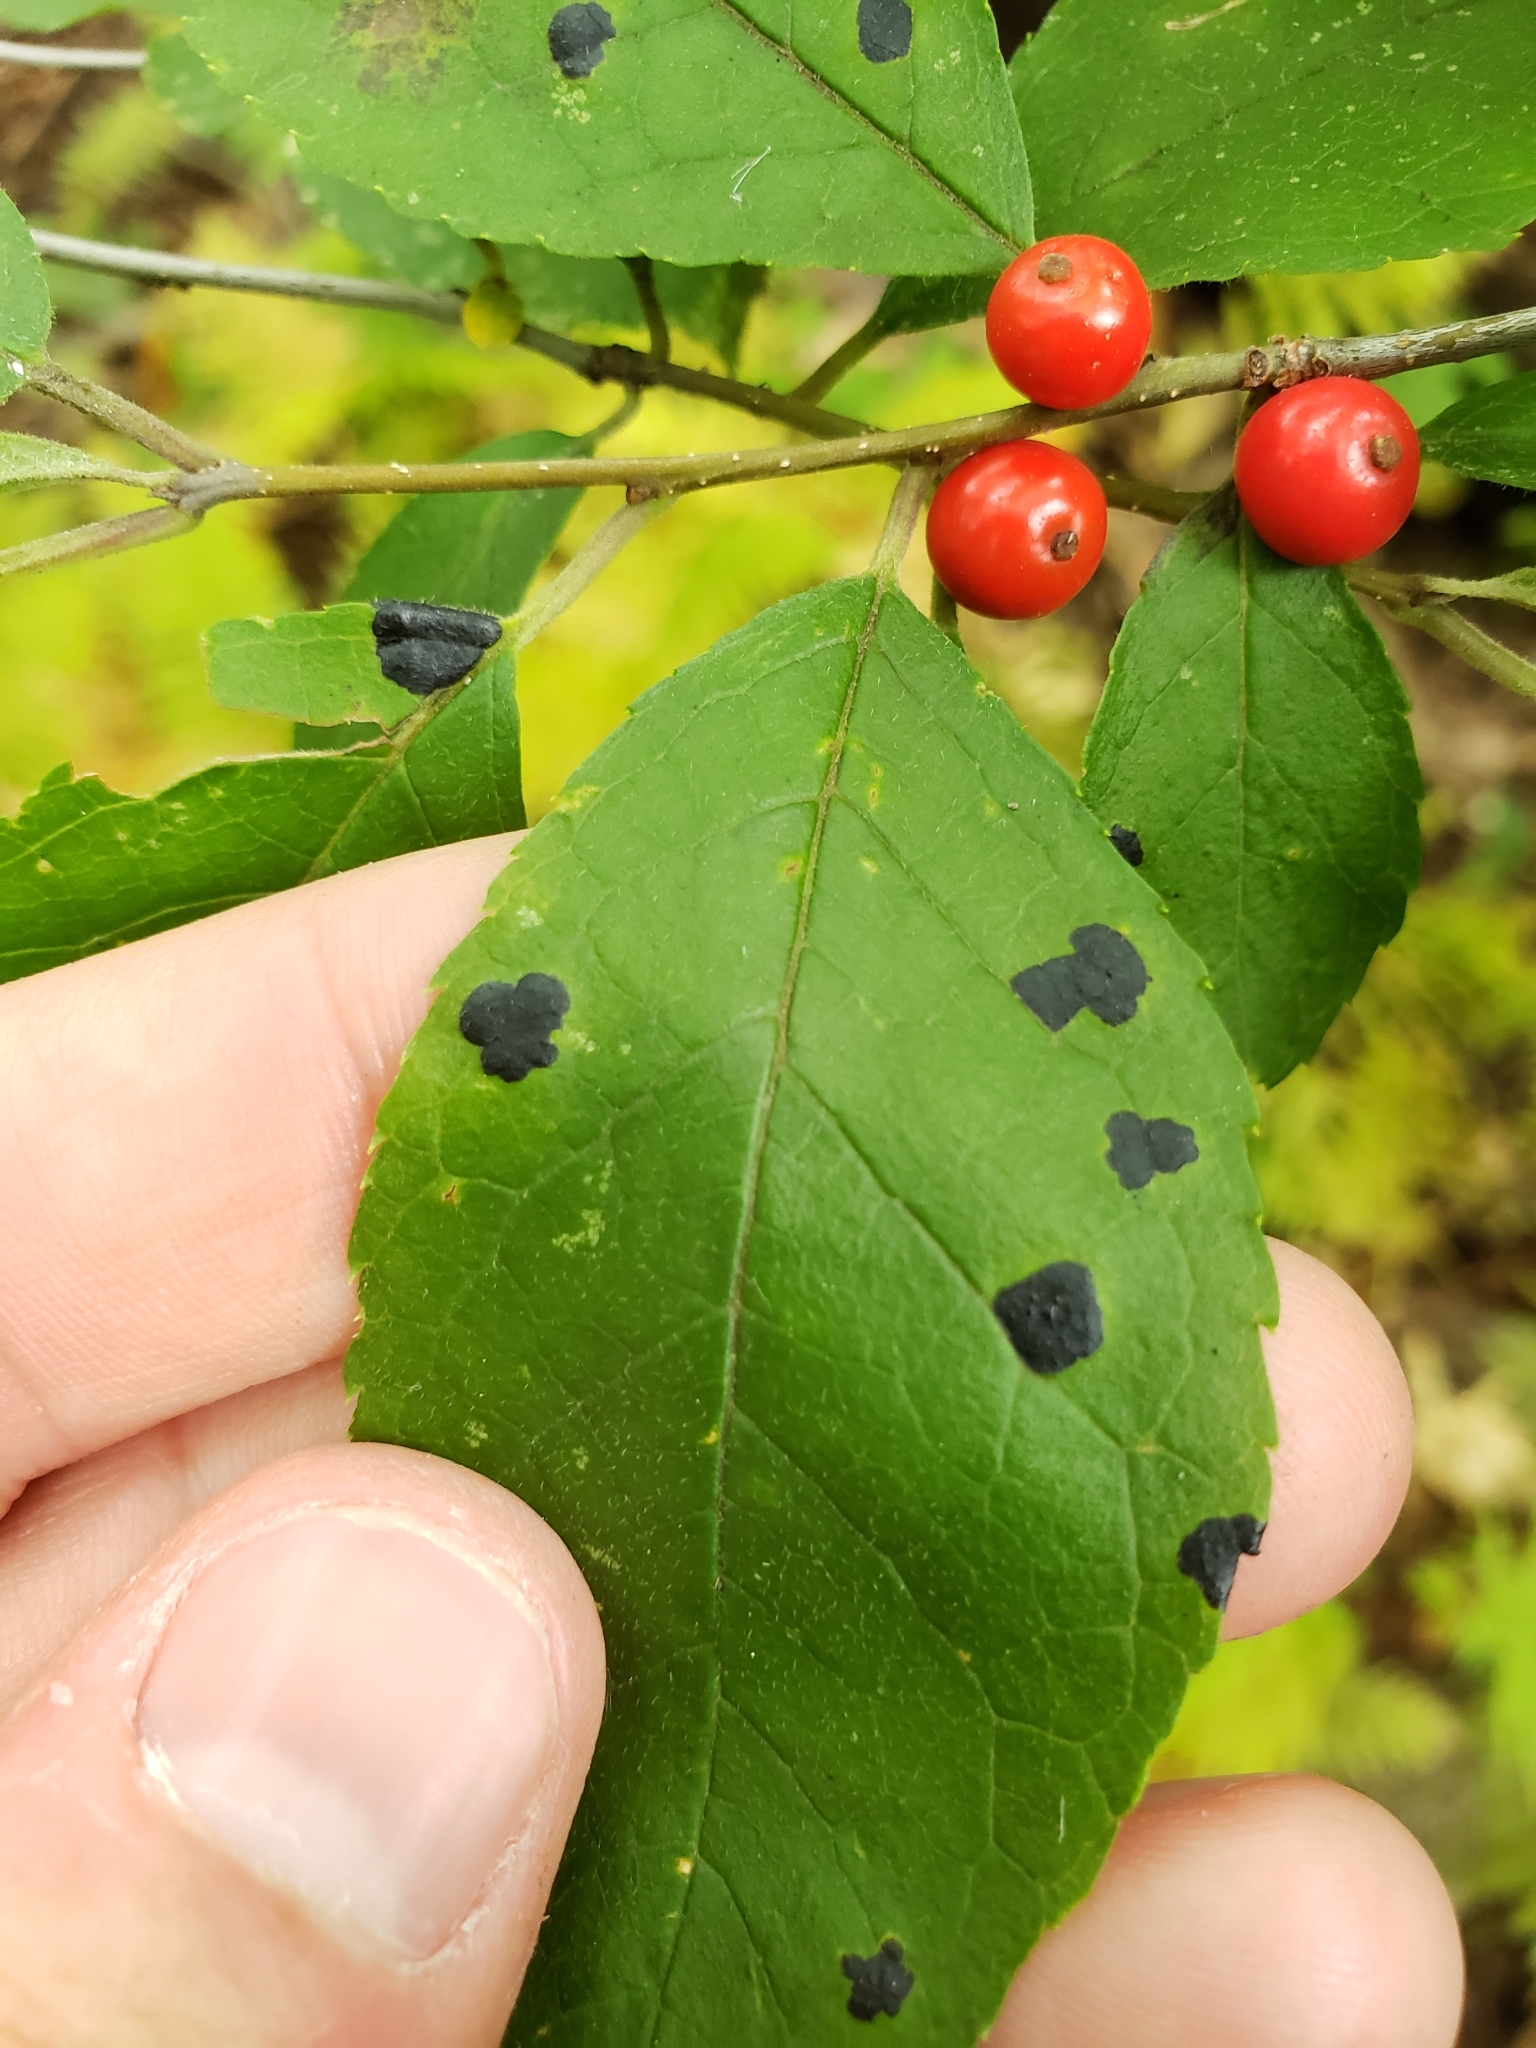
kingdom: Plantae
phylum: Tracheophyta
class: Magnoliopsida
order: Aquifoliales
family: Aquifoliaceae
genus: Ilex
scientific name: Ilex verticillata
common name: Virginia winterberry
